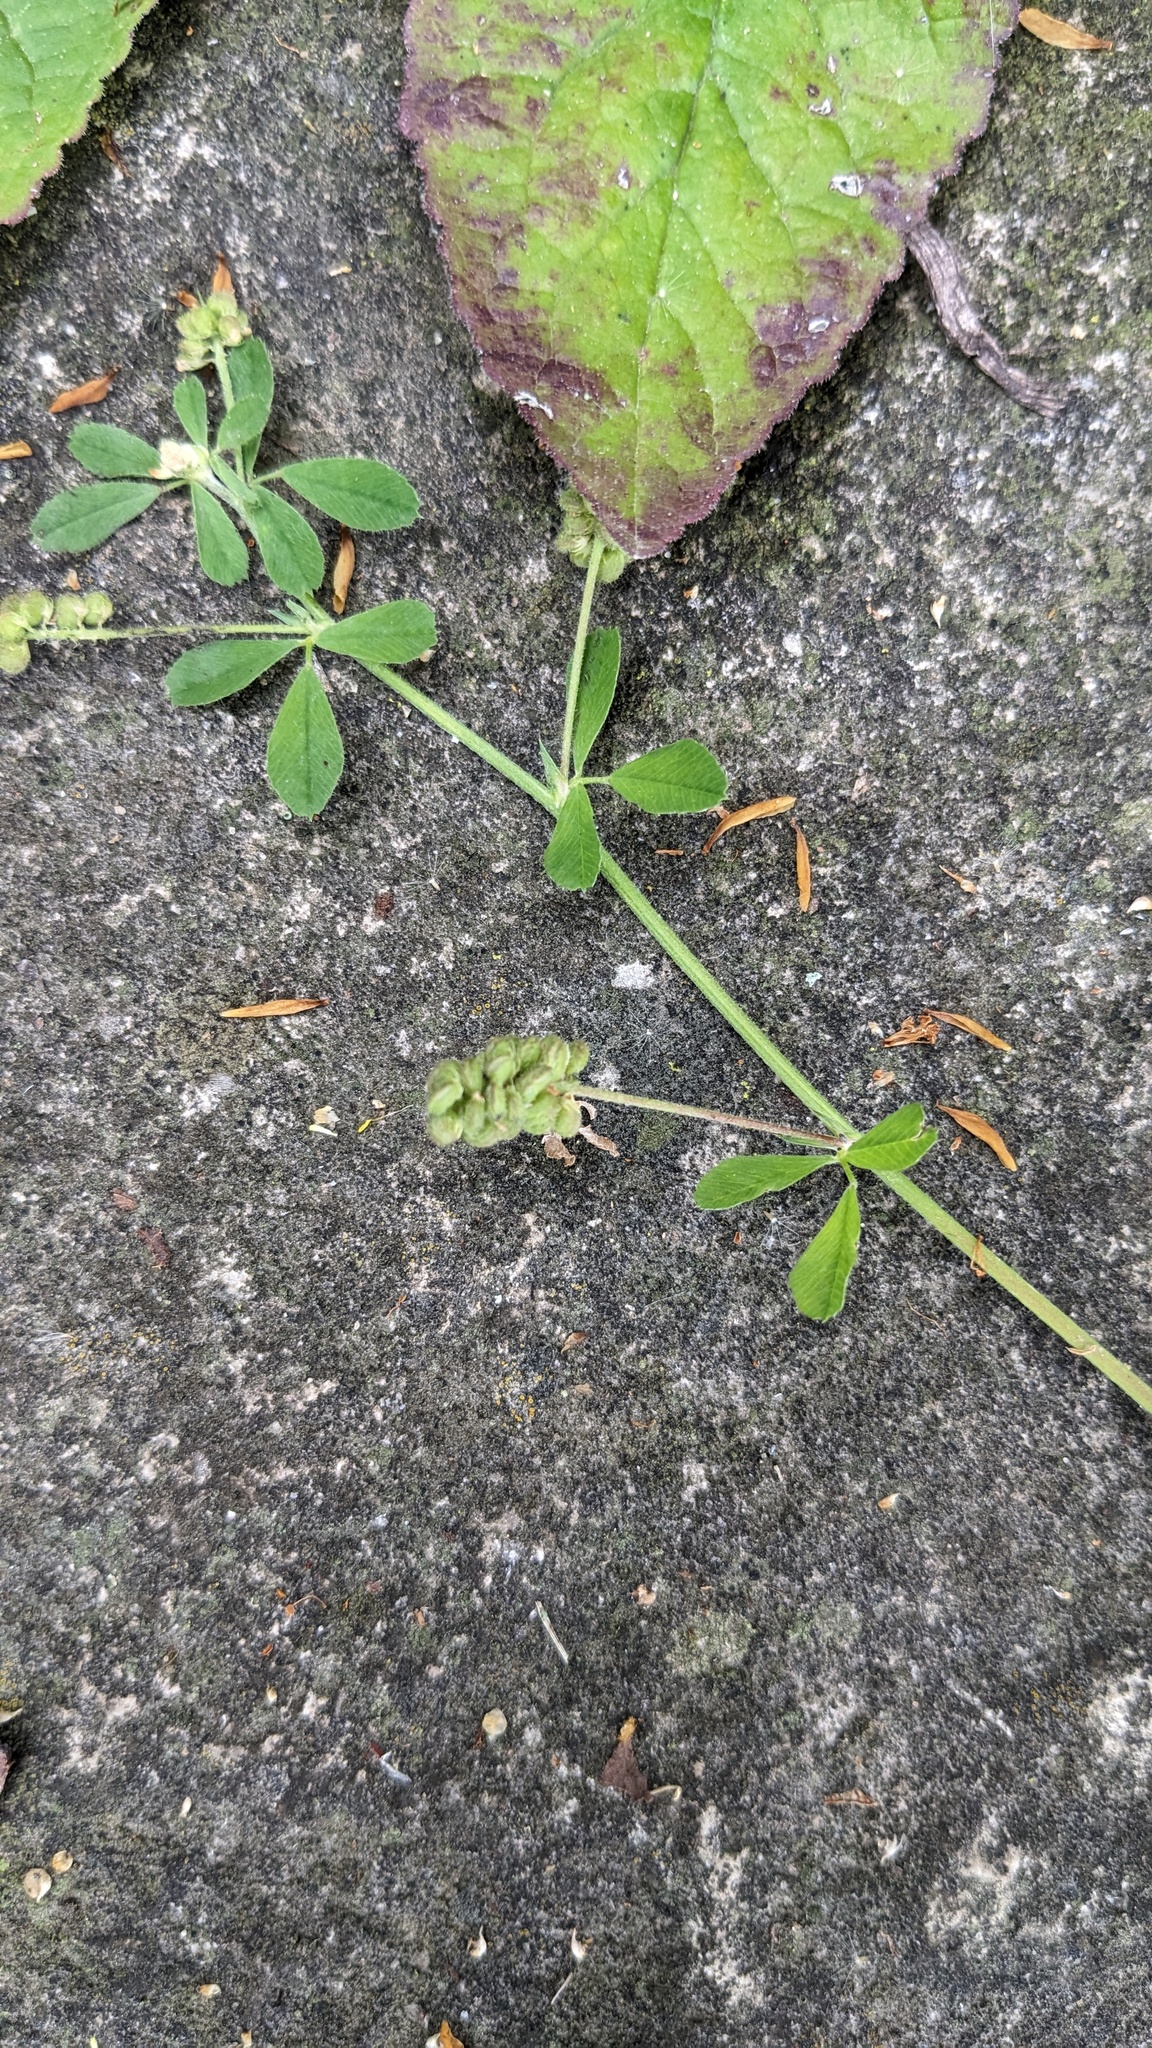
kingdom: Plantae
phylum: Tracheophyta
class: Magnoliopsida
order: Fabales
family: Fabaceae
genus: Medicago
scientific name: Medicago lupulina
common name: Black medick
